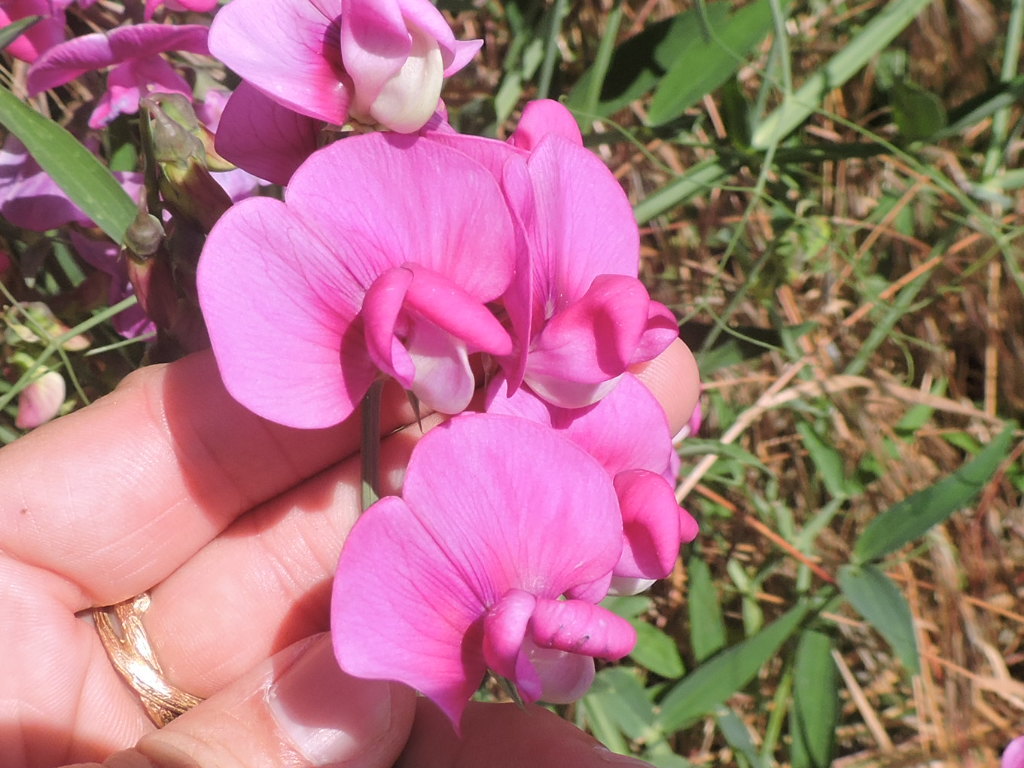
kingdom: Plantae
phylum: Tracheophyta
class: Magnoliopsida
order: Fabales
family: Fabaceae
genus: Lathyrus
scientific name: Lathyrus latifolius
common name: Perennial pea
